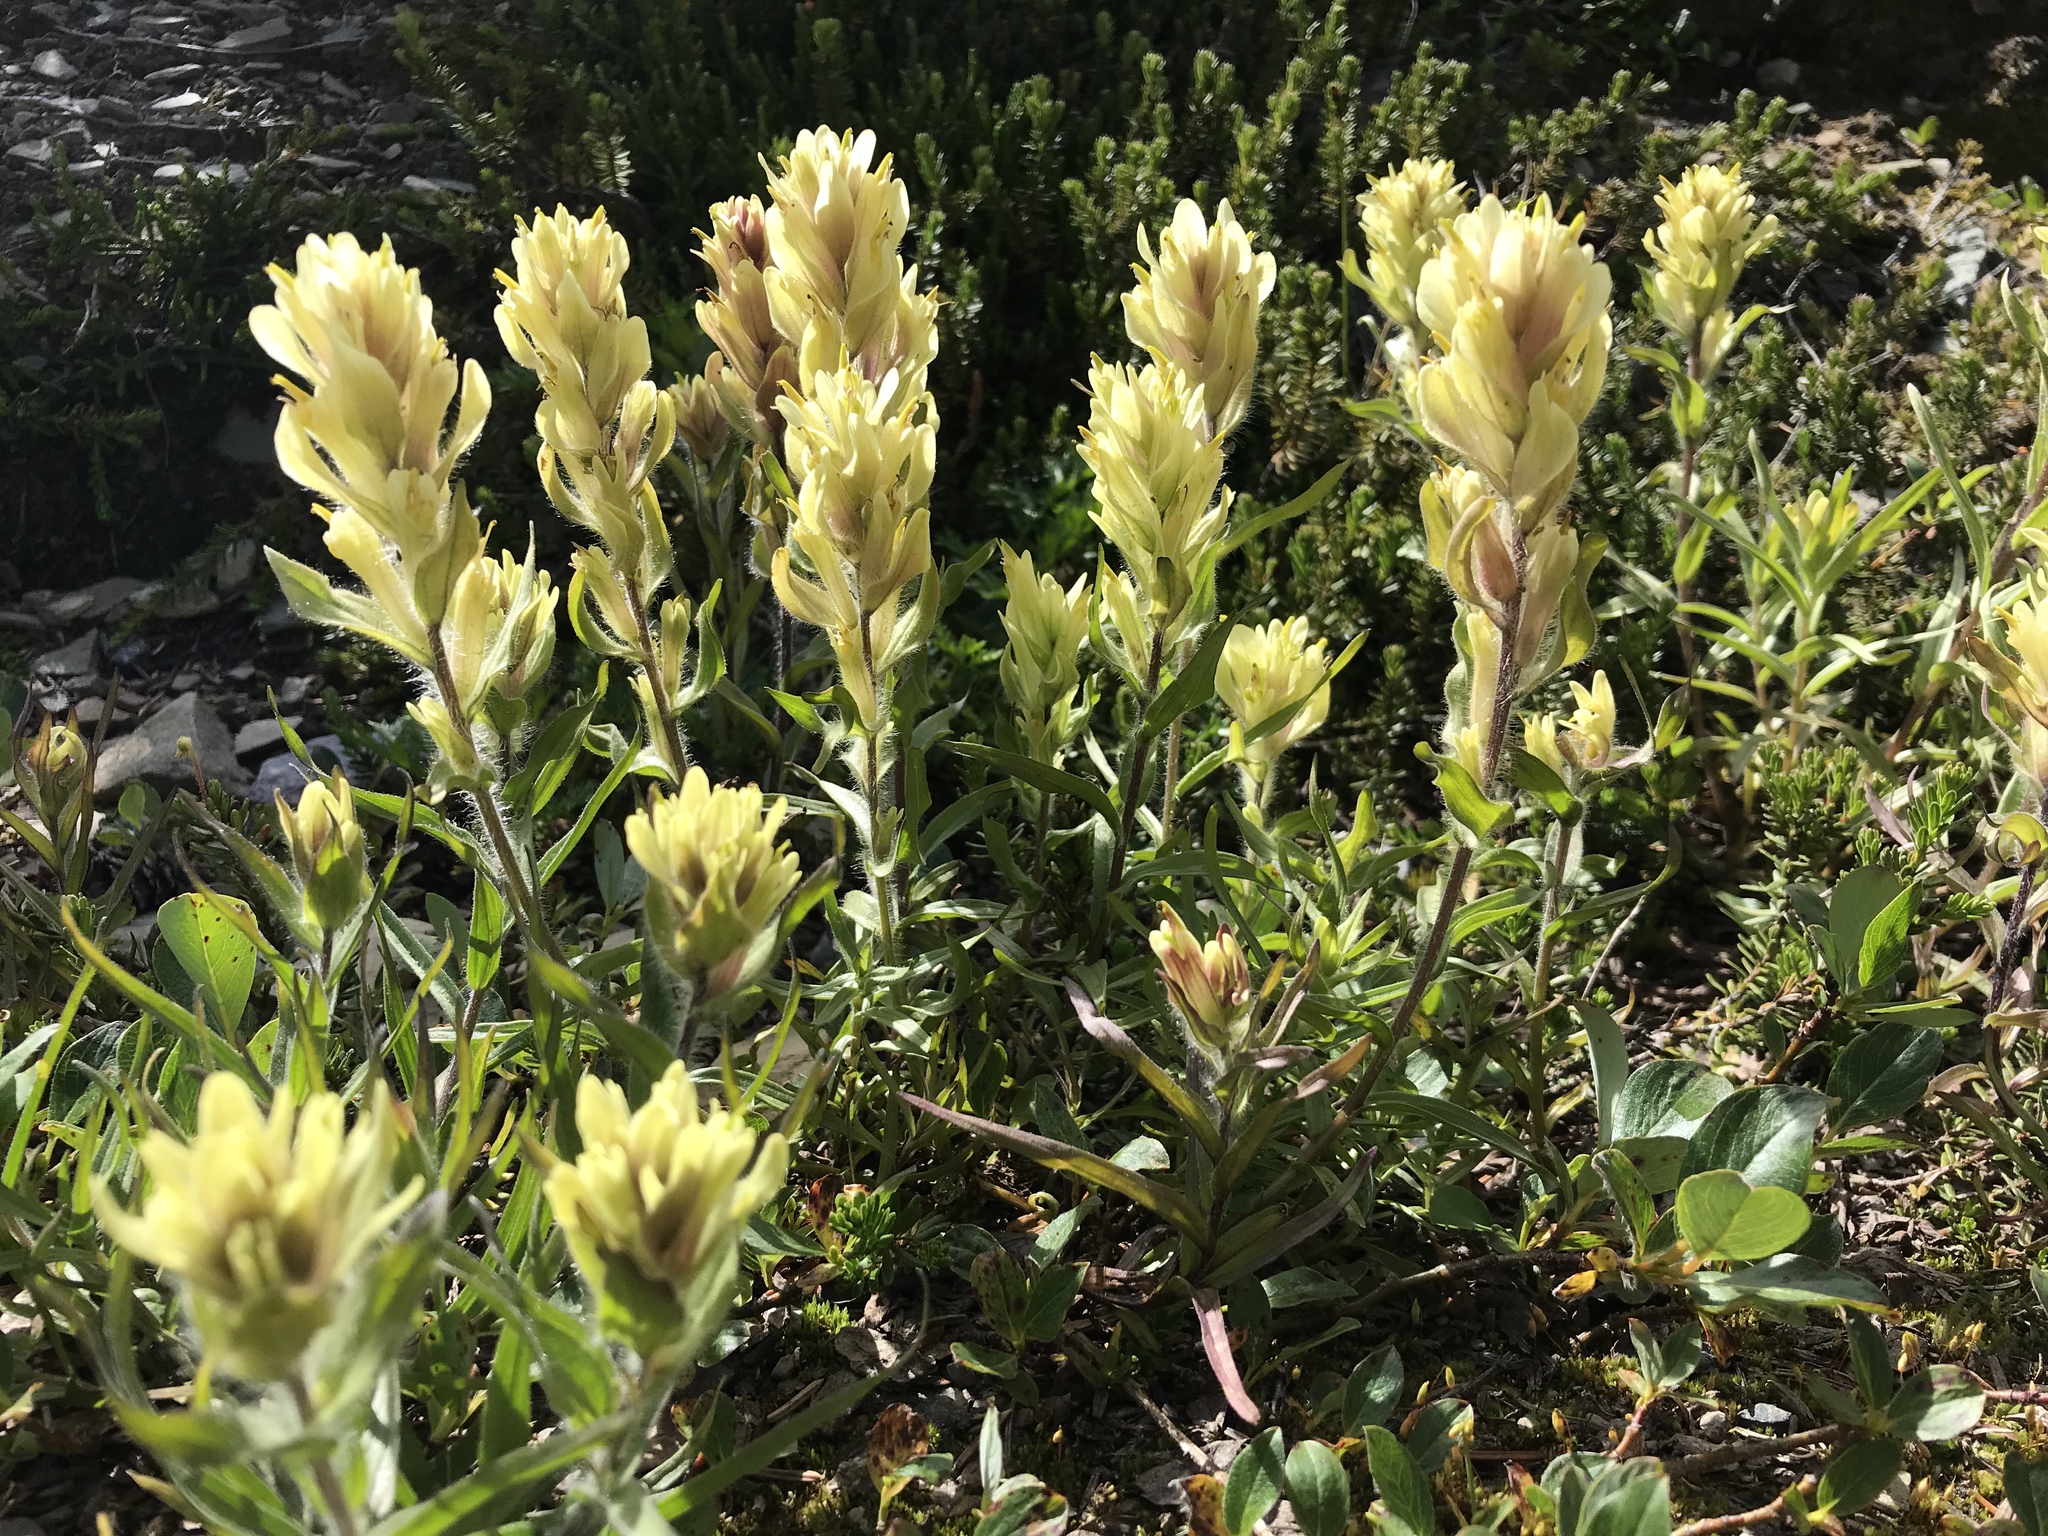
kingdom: Plantae
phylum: Tracheophyta
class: Magnoliopsida
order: Lamiales
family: Orobanchaceae
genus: Castilleja
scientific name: Castilleja occidentalis
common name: Western paintbrush
